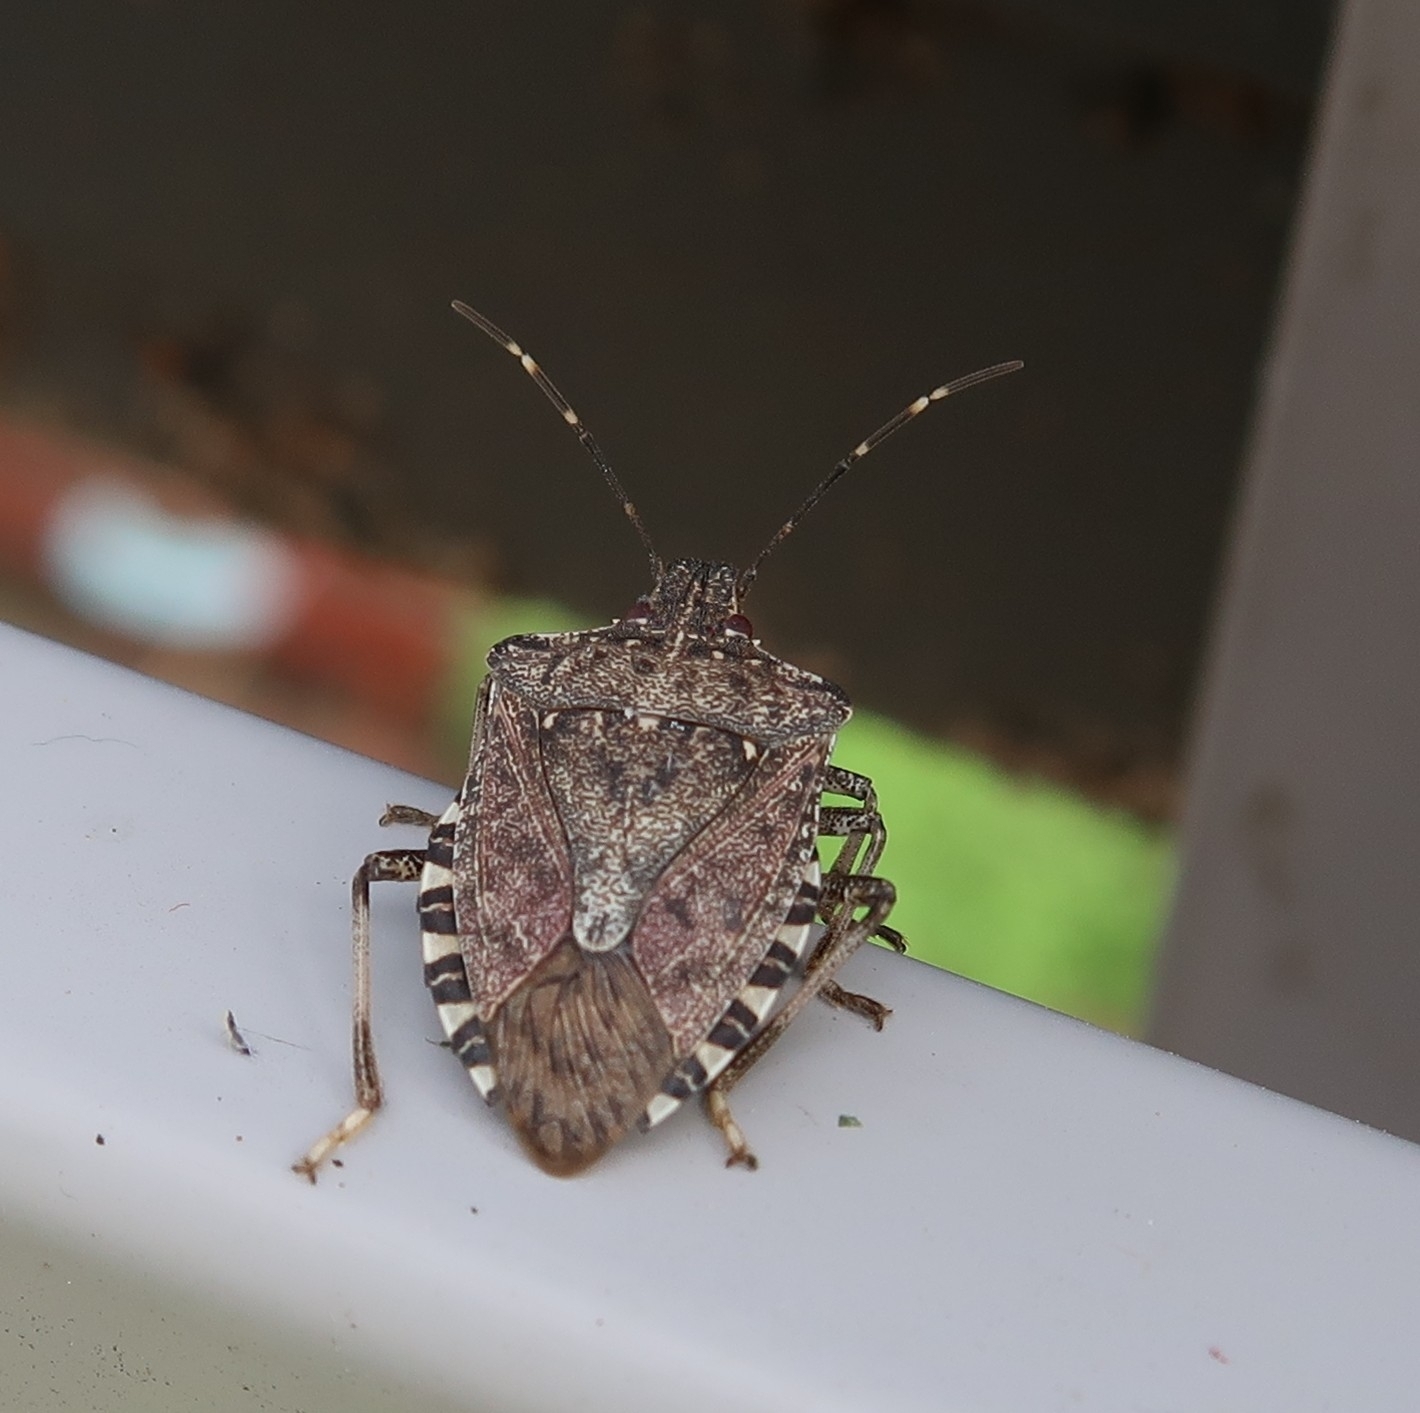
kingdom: Animalia
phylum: Arthropoda
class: Insecta
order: Hemiptera
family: Pentatomidae
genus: Halyomorpha
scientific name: Halyomorpha halys
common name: Brown marmorated stink bug
